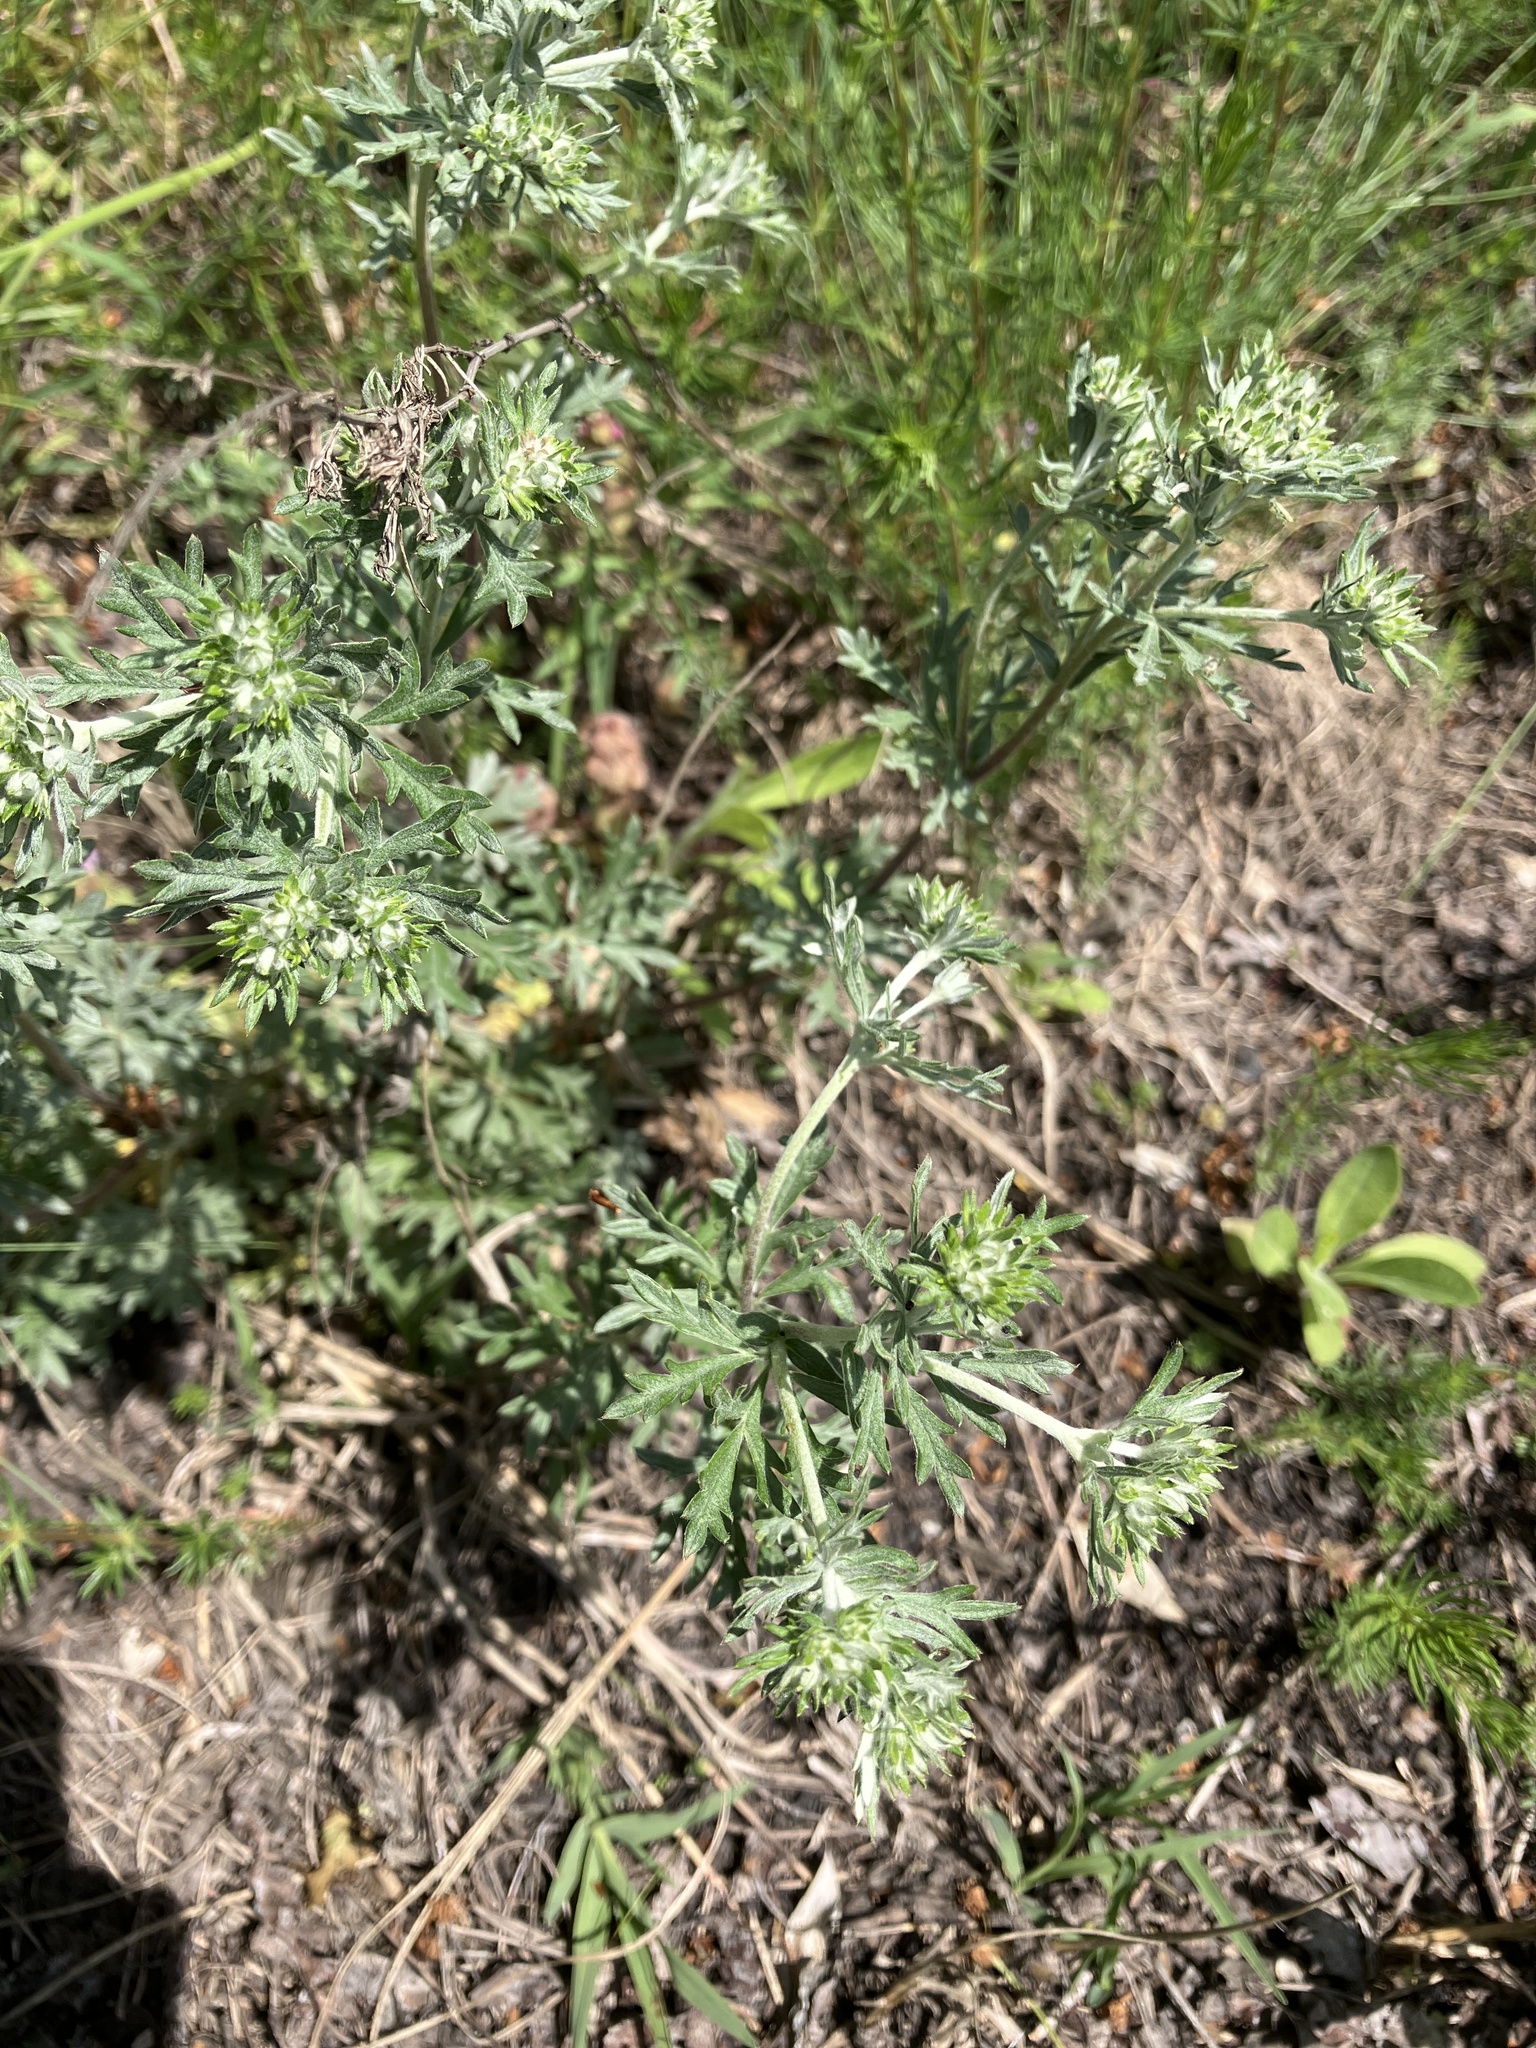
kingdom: Plantae
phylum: Tracheophyta
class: Magnoliopsida
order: Rosales
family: Rosaceae
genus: Potentilla
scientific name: Potentilla argentea
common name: Hoary cinquefoil
